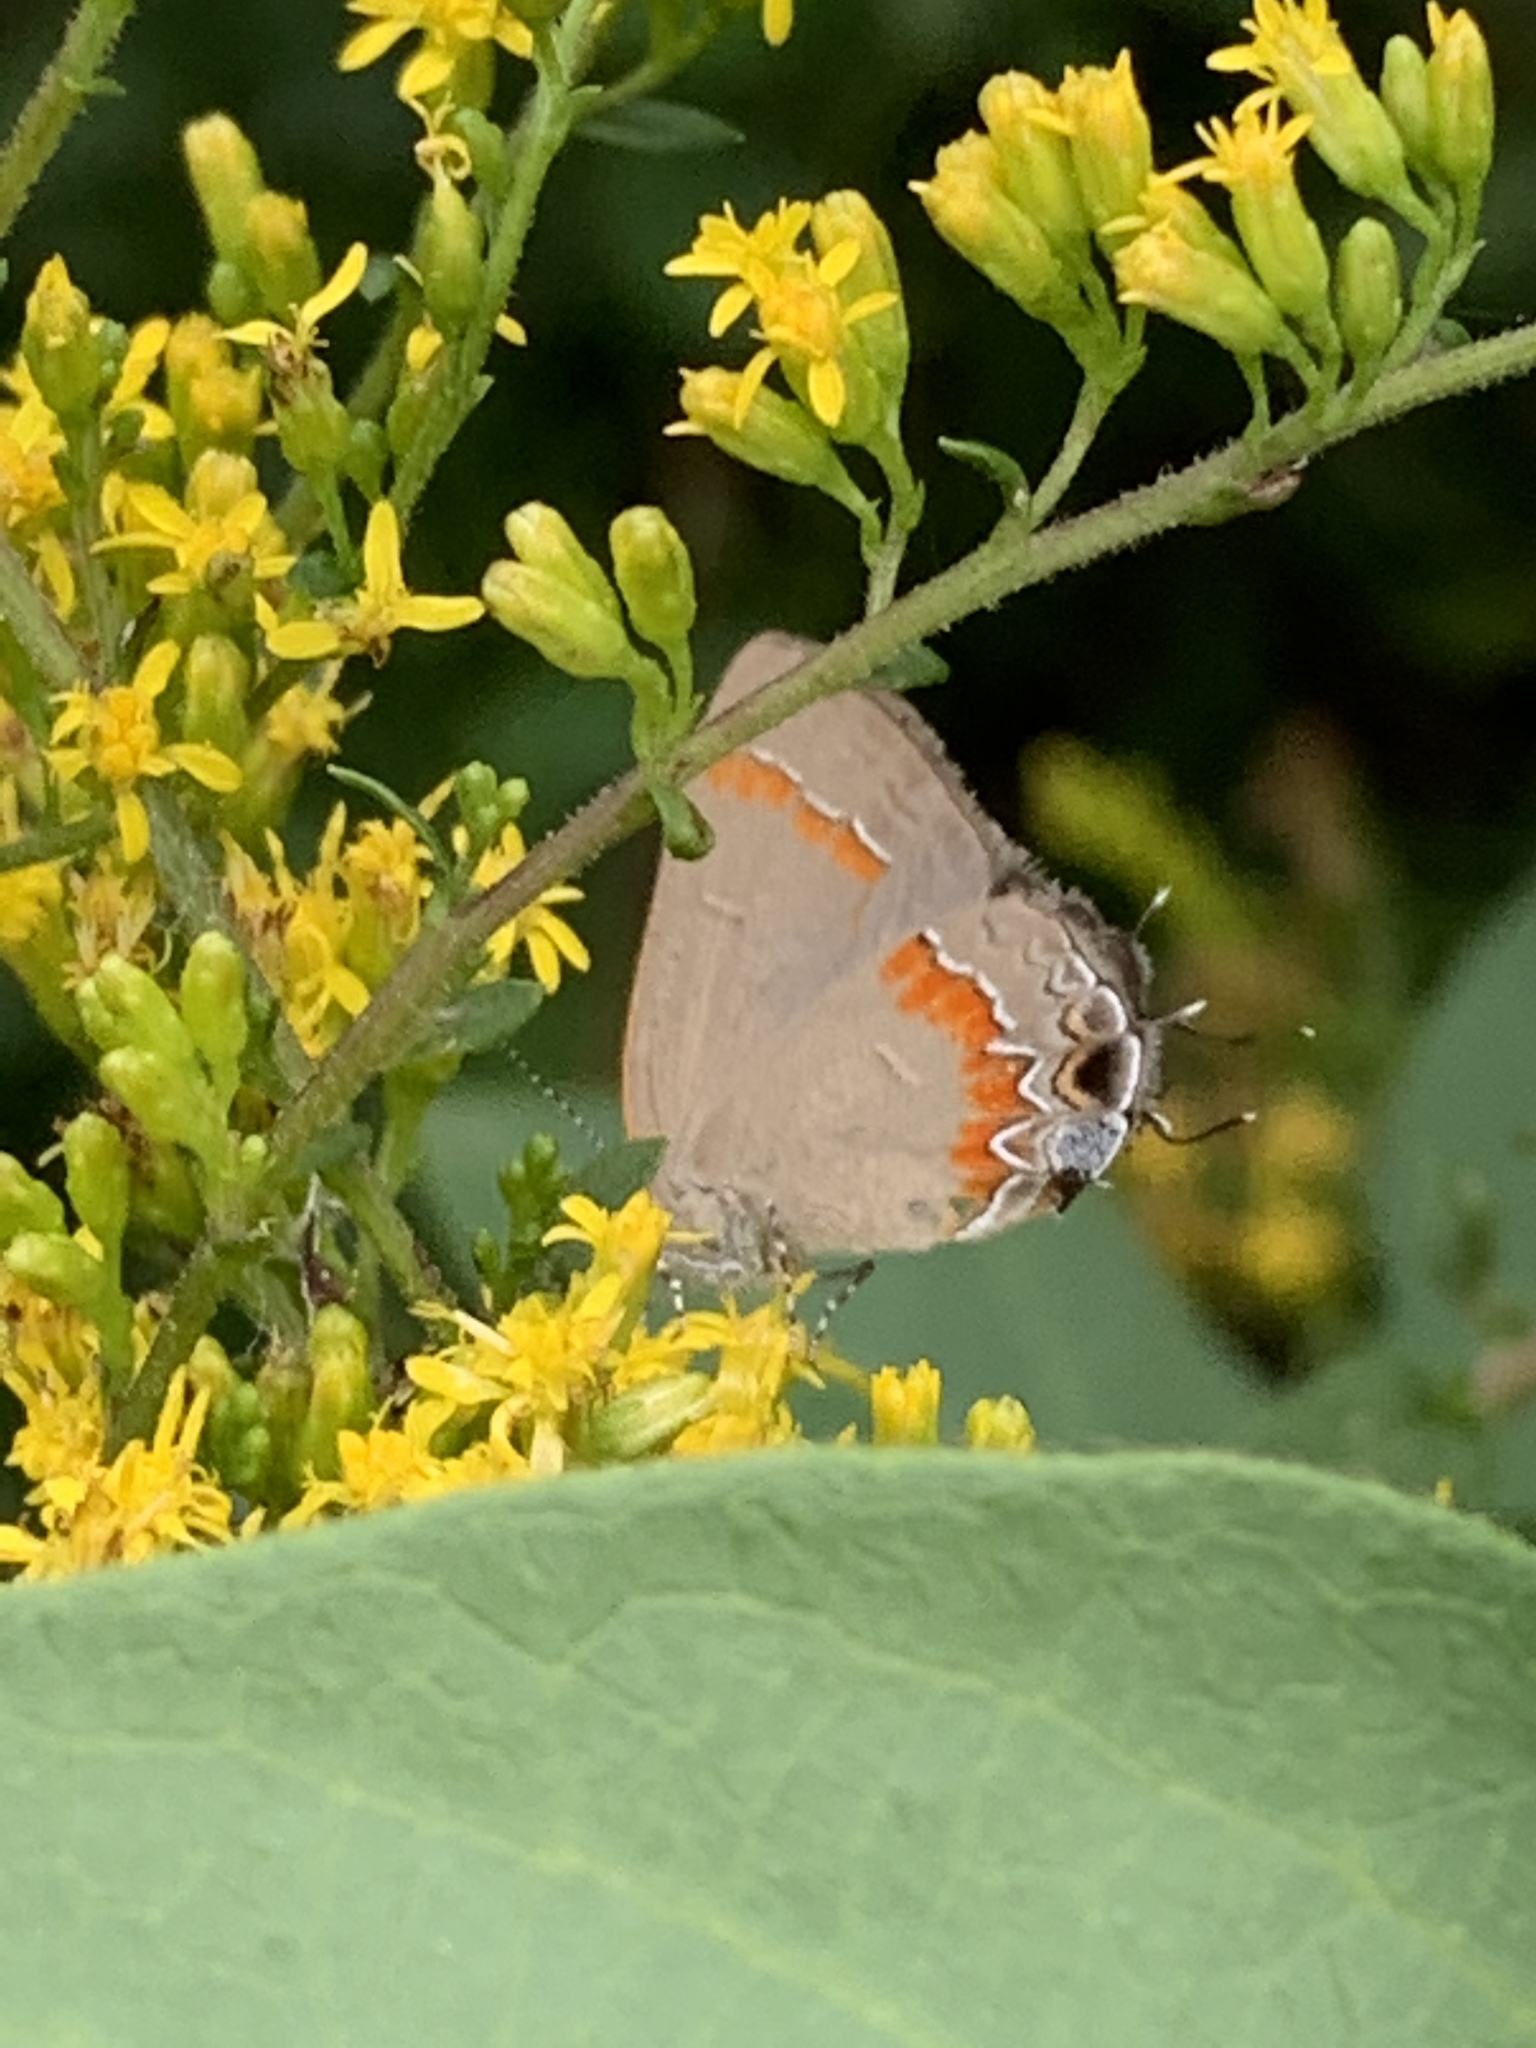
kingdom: Animalia
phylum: Arthropoda
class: Insecta
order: Lepidoptera
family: Lycaenidae
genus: Calycopis
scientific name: Calycopis cecrops
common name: Red-banded hairstreak
